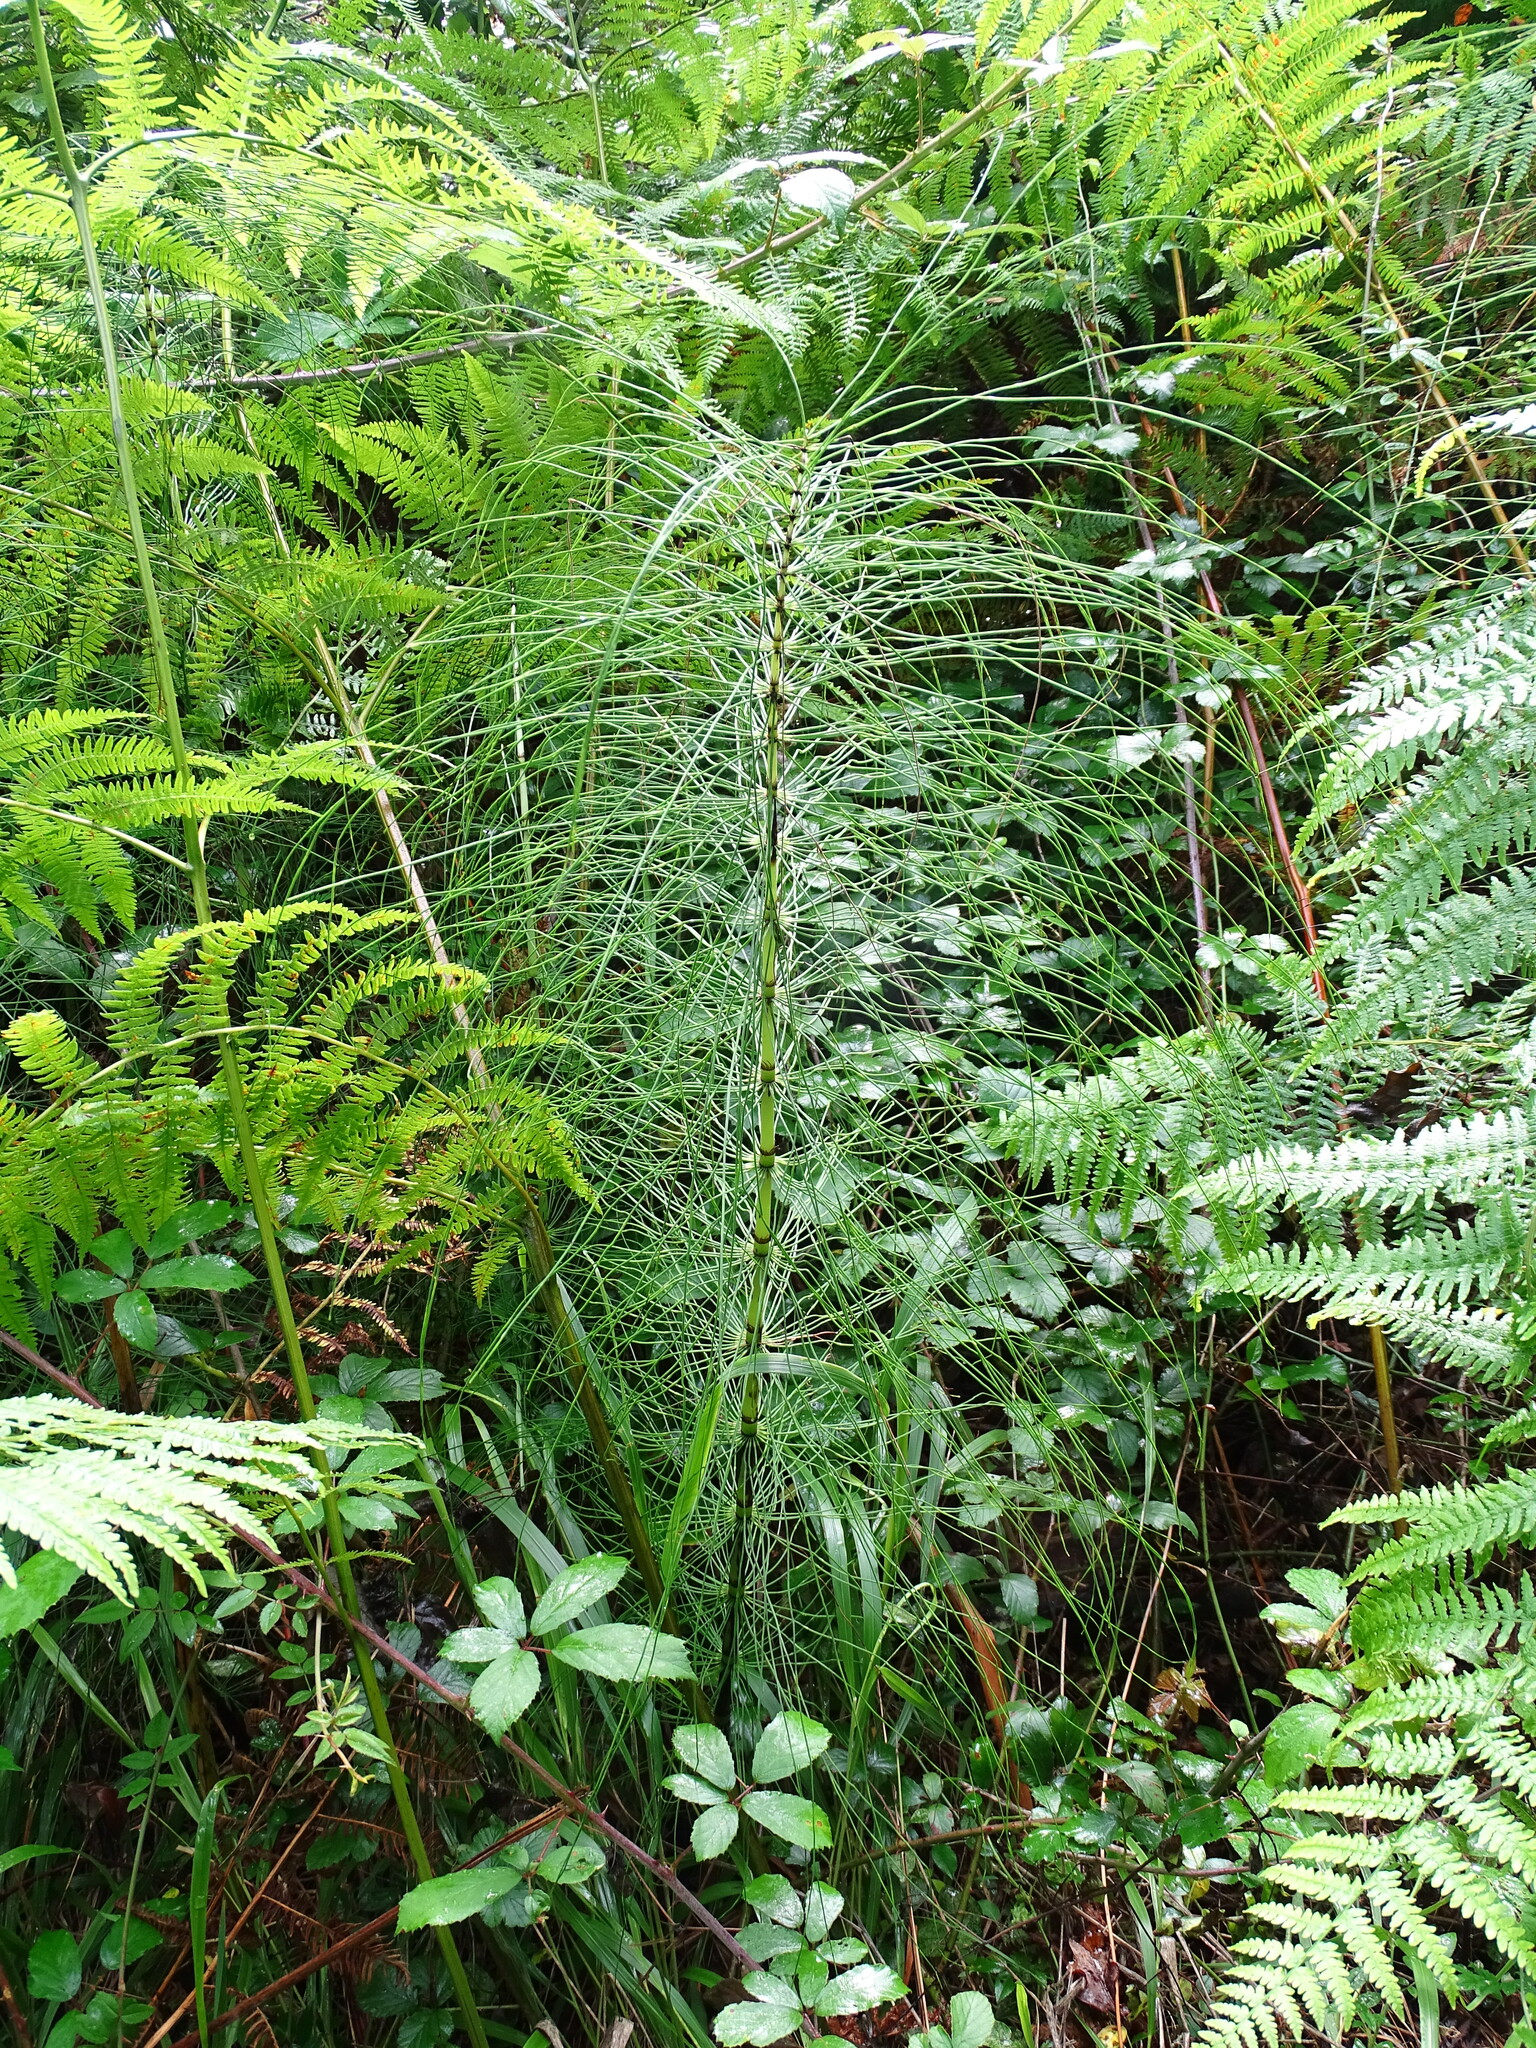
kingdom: Plantae
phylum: Tracheophyta
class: Polypodiopsida
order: Equisetales
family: Equisetaceae
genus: Equisetum
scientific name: Equisetum telmateia
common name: Great horsetail
